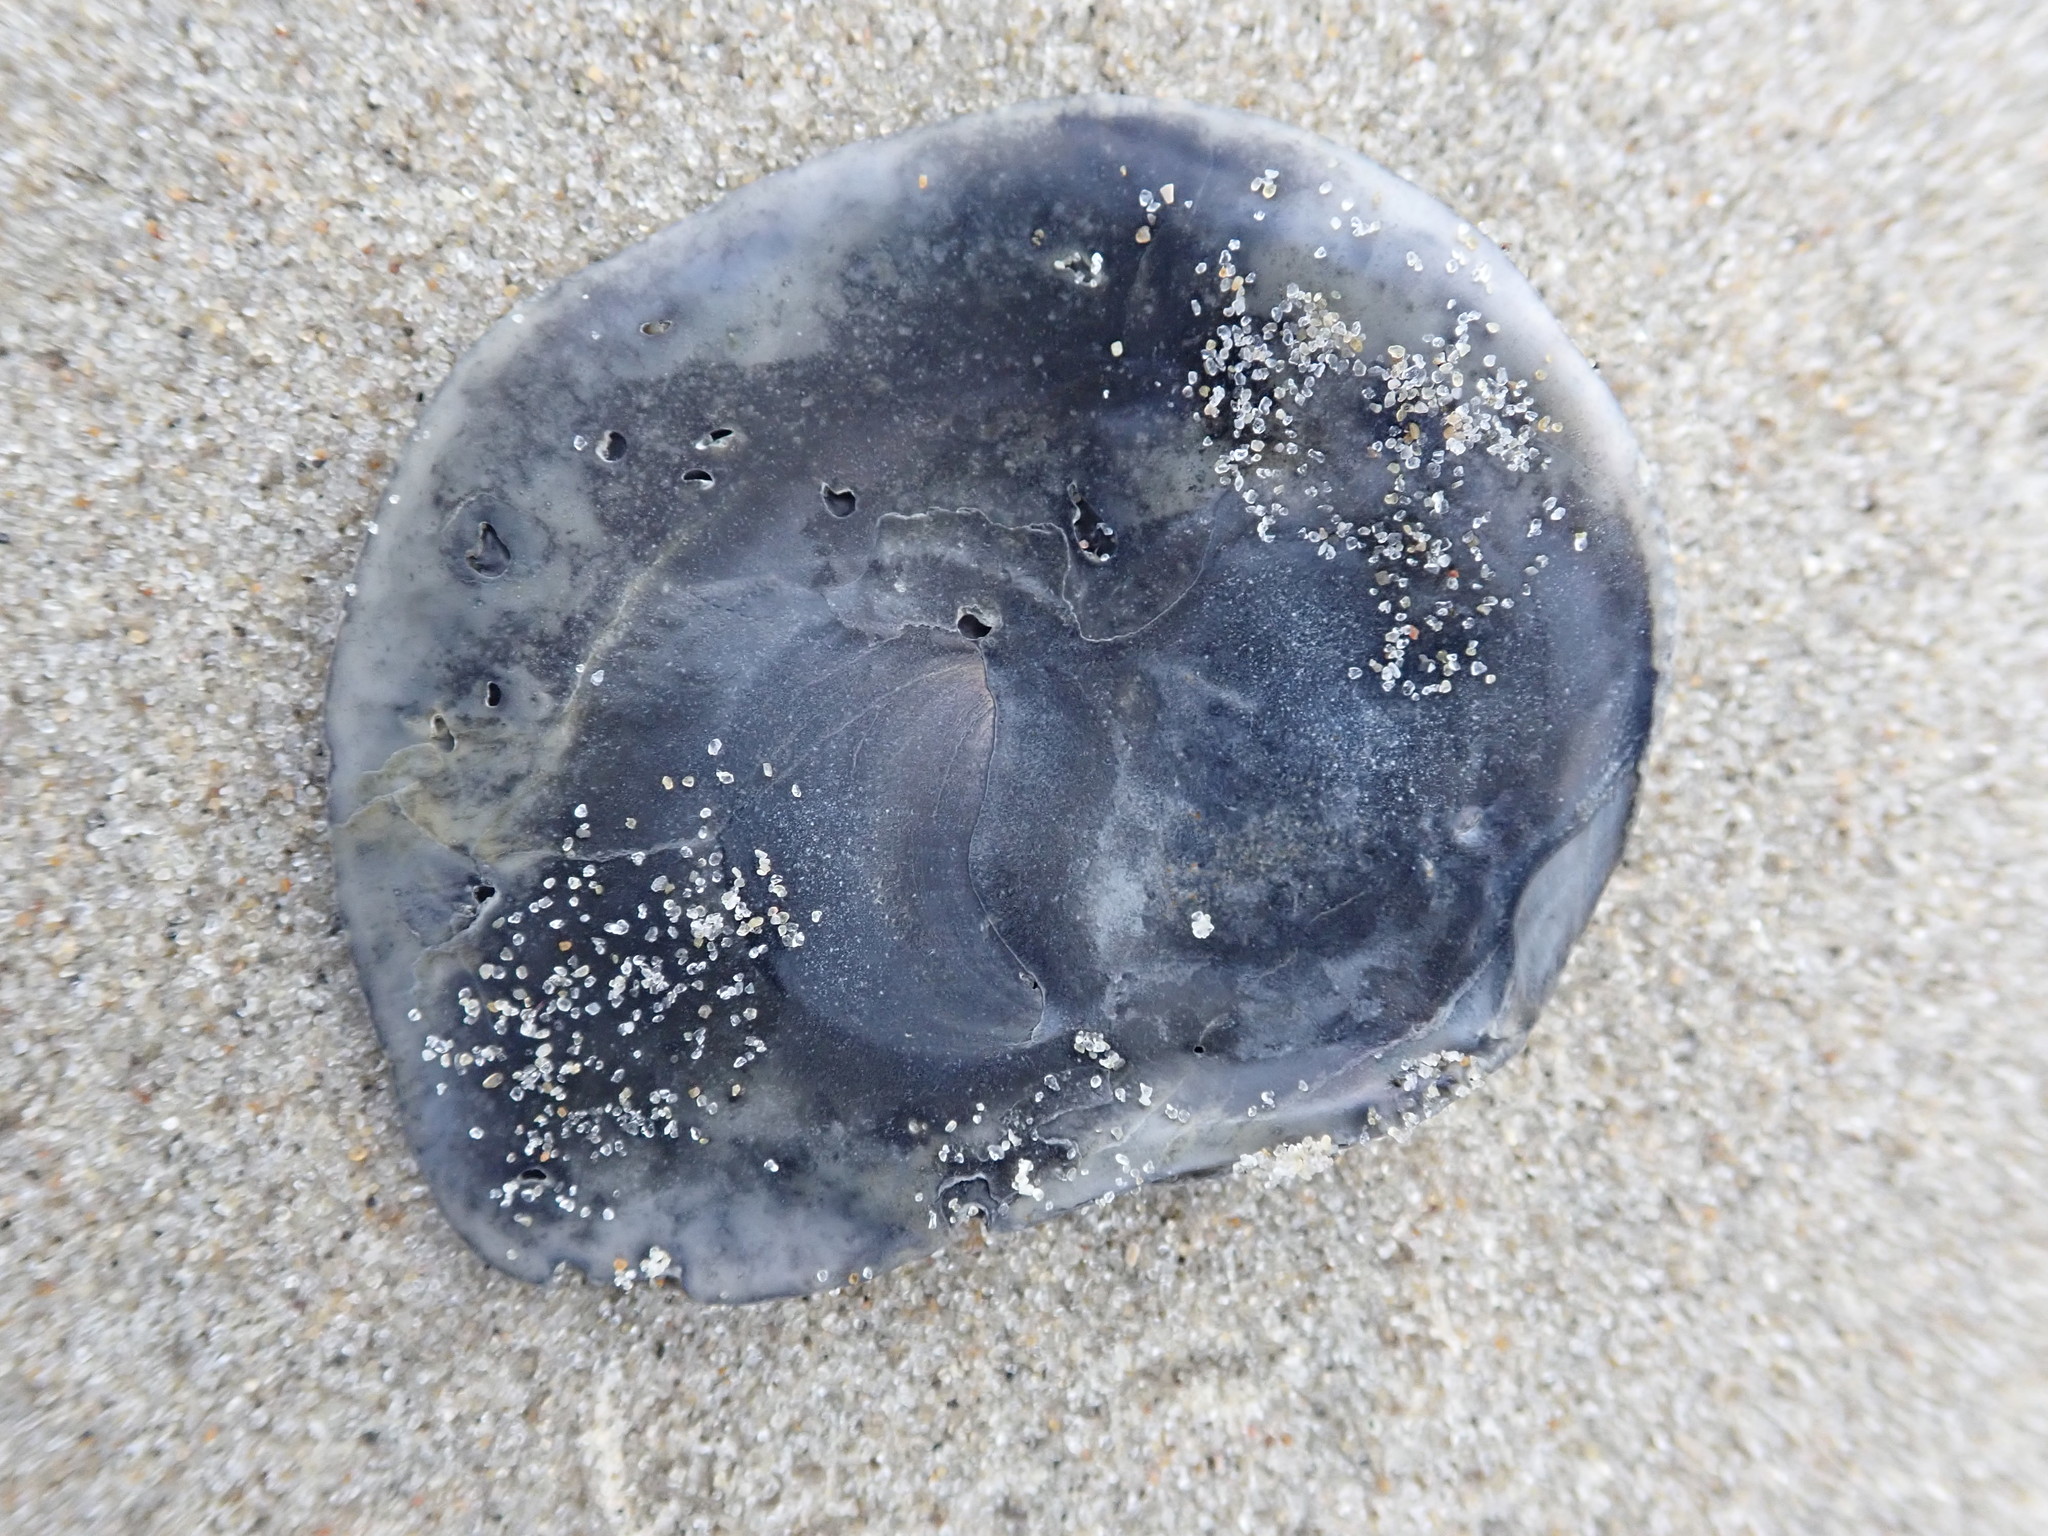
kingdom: Animalia
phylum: Mollusca
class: Bivalvia
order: Ostreida
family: Ostreidae
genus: Ostrea
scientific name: Ostrea edulis
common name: Flat oyster
